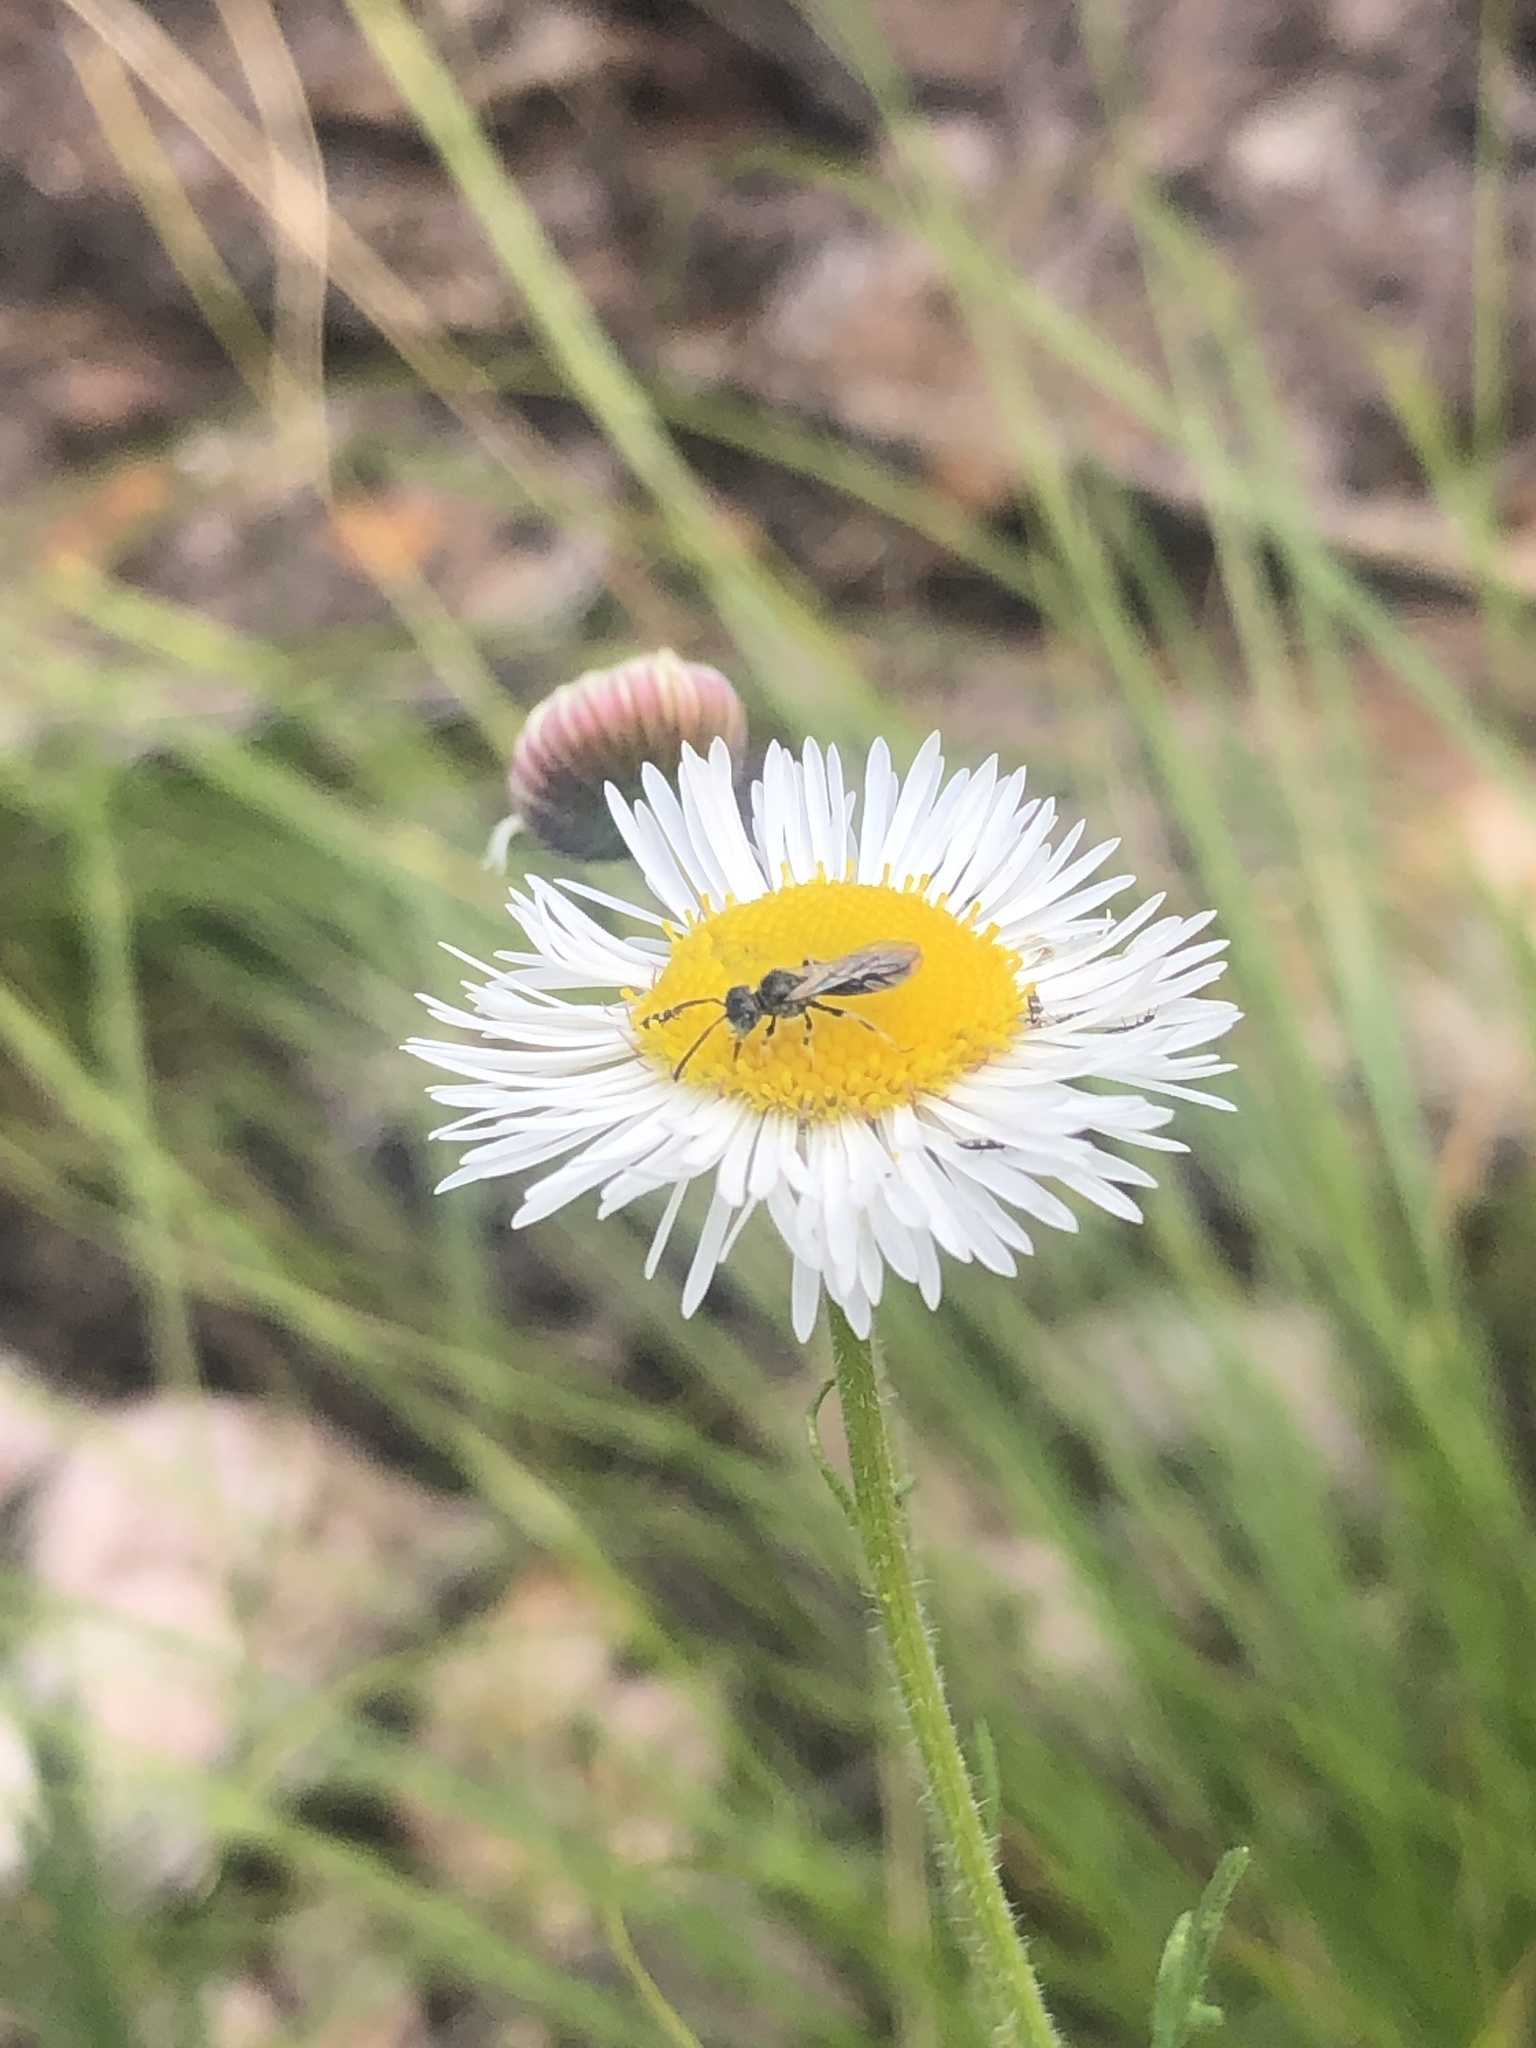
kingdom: Animalia
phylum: Arthropoda
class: Insecta
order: Hymenoptera
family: Andrenidae
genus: Protandrena
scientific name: Protandrena
